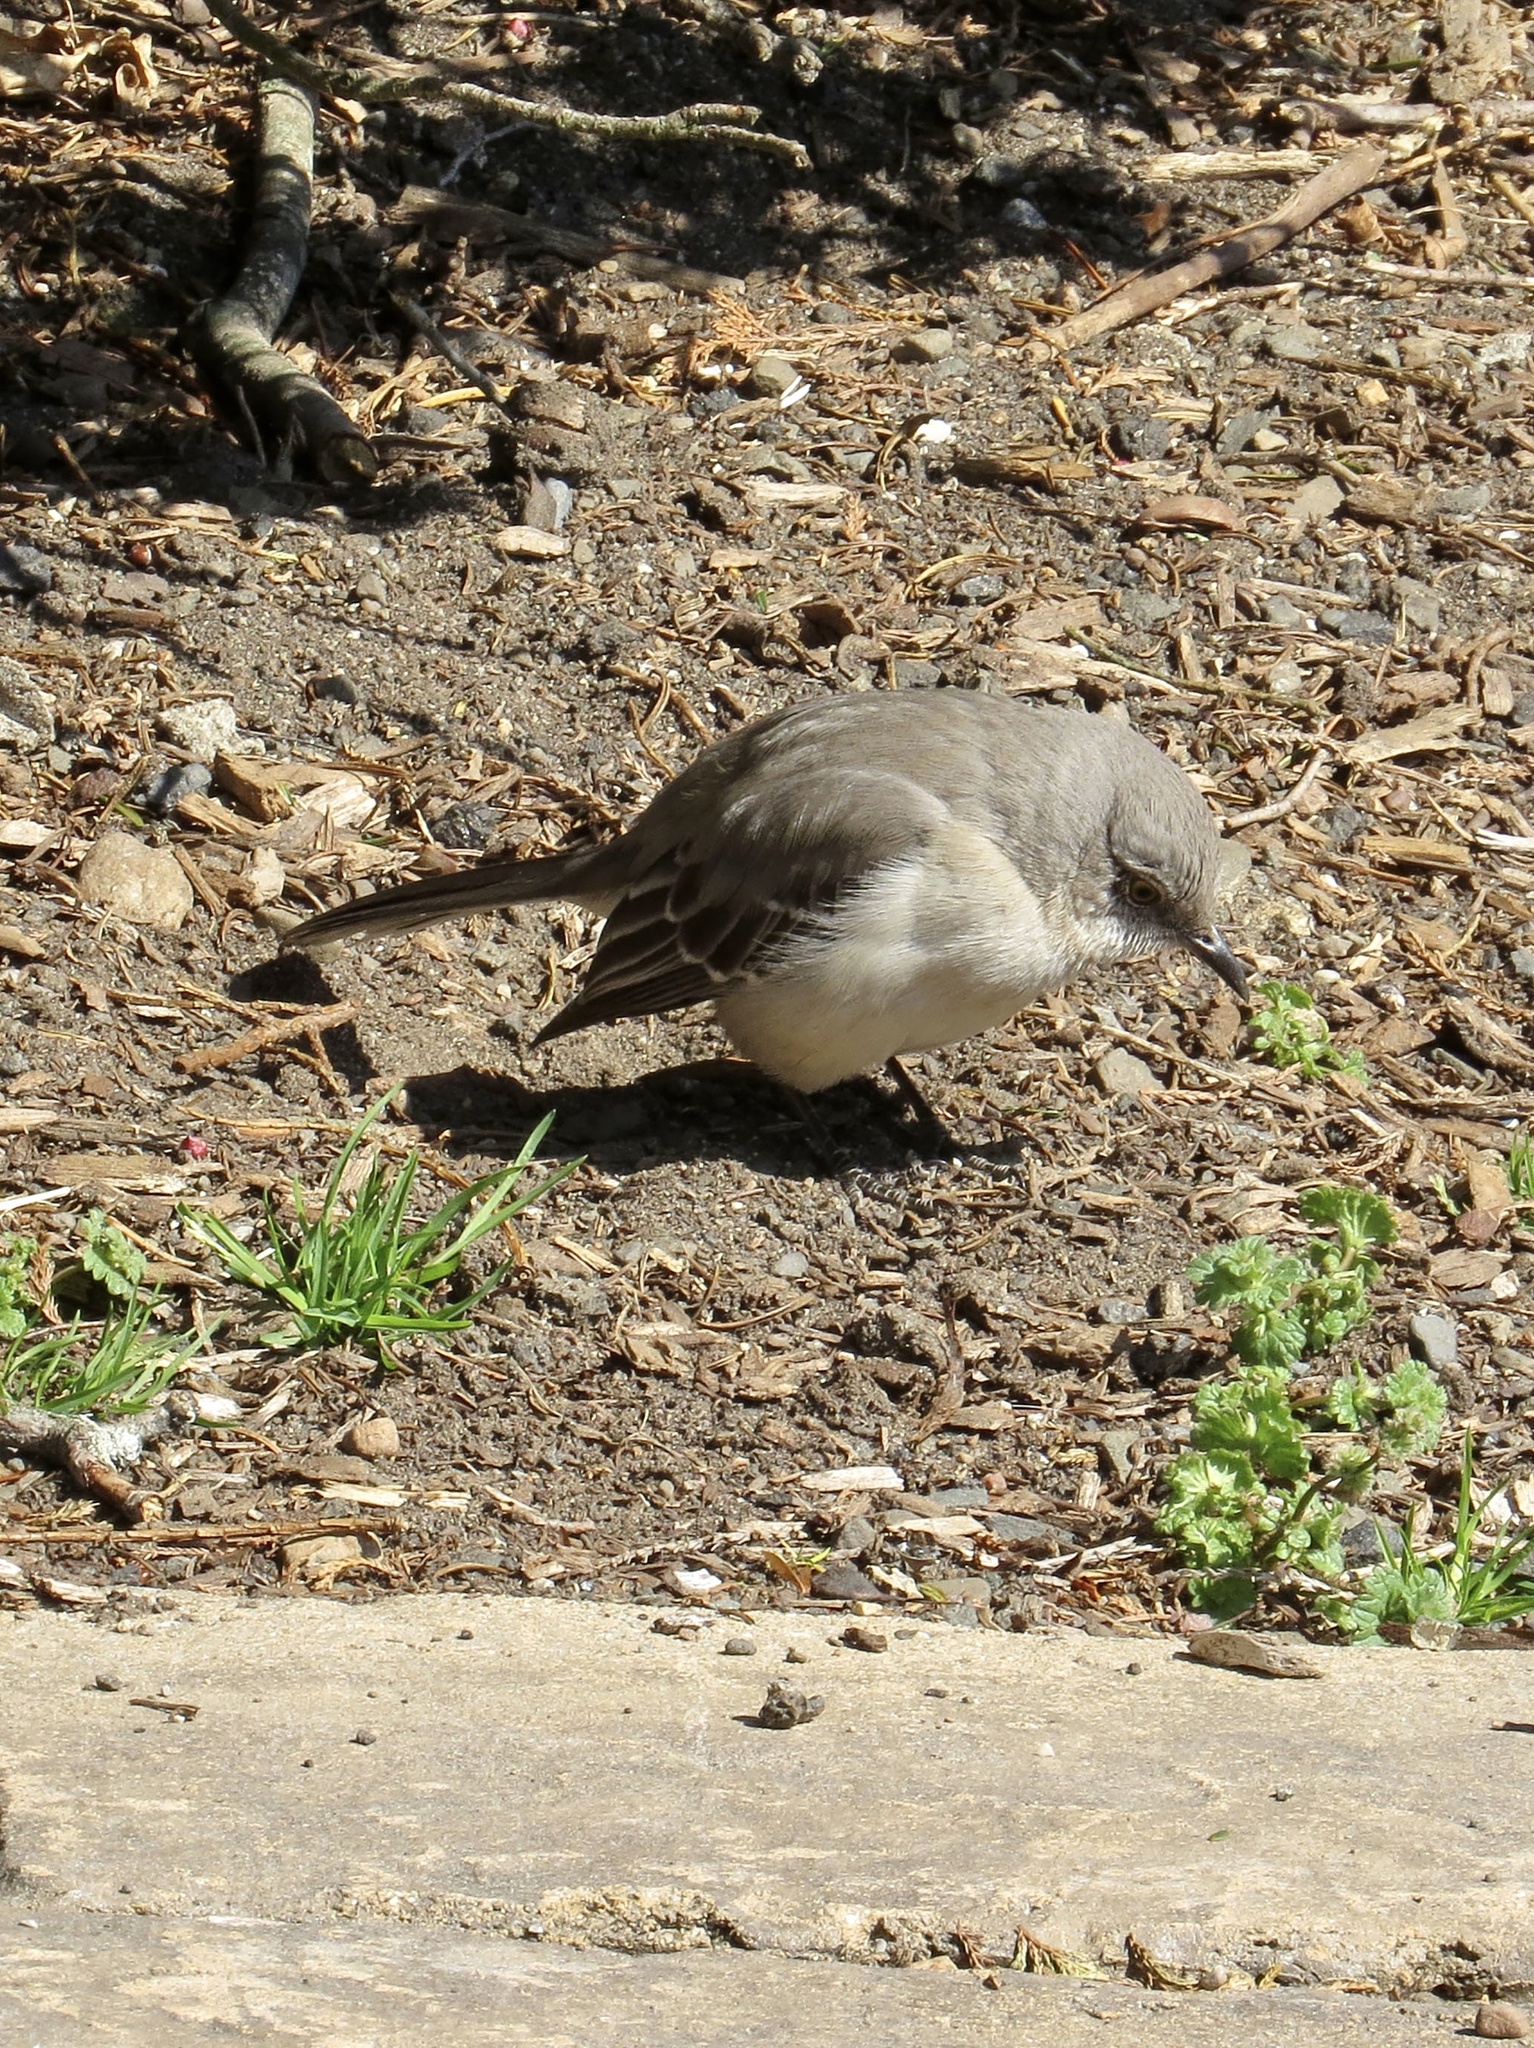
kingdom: Animalia
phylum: Chordata
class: Aves
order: Passeriformes
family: Mimidae
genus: Mimus
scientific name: Mimus polyglottos
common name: Northern mockingbird
